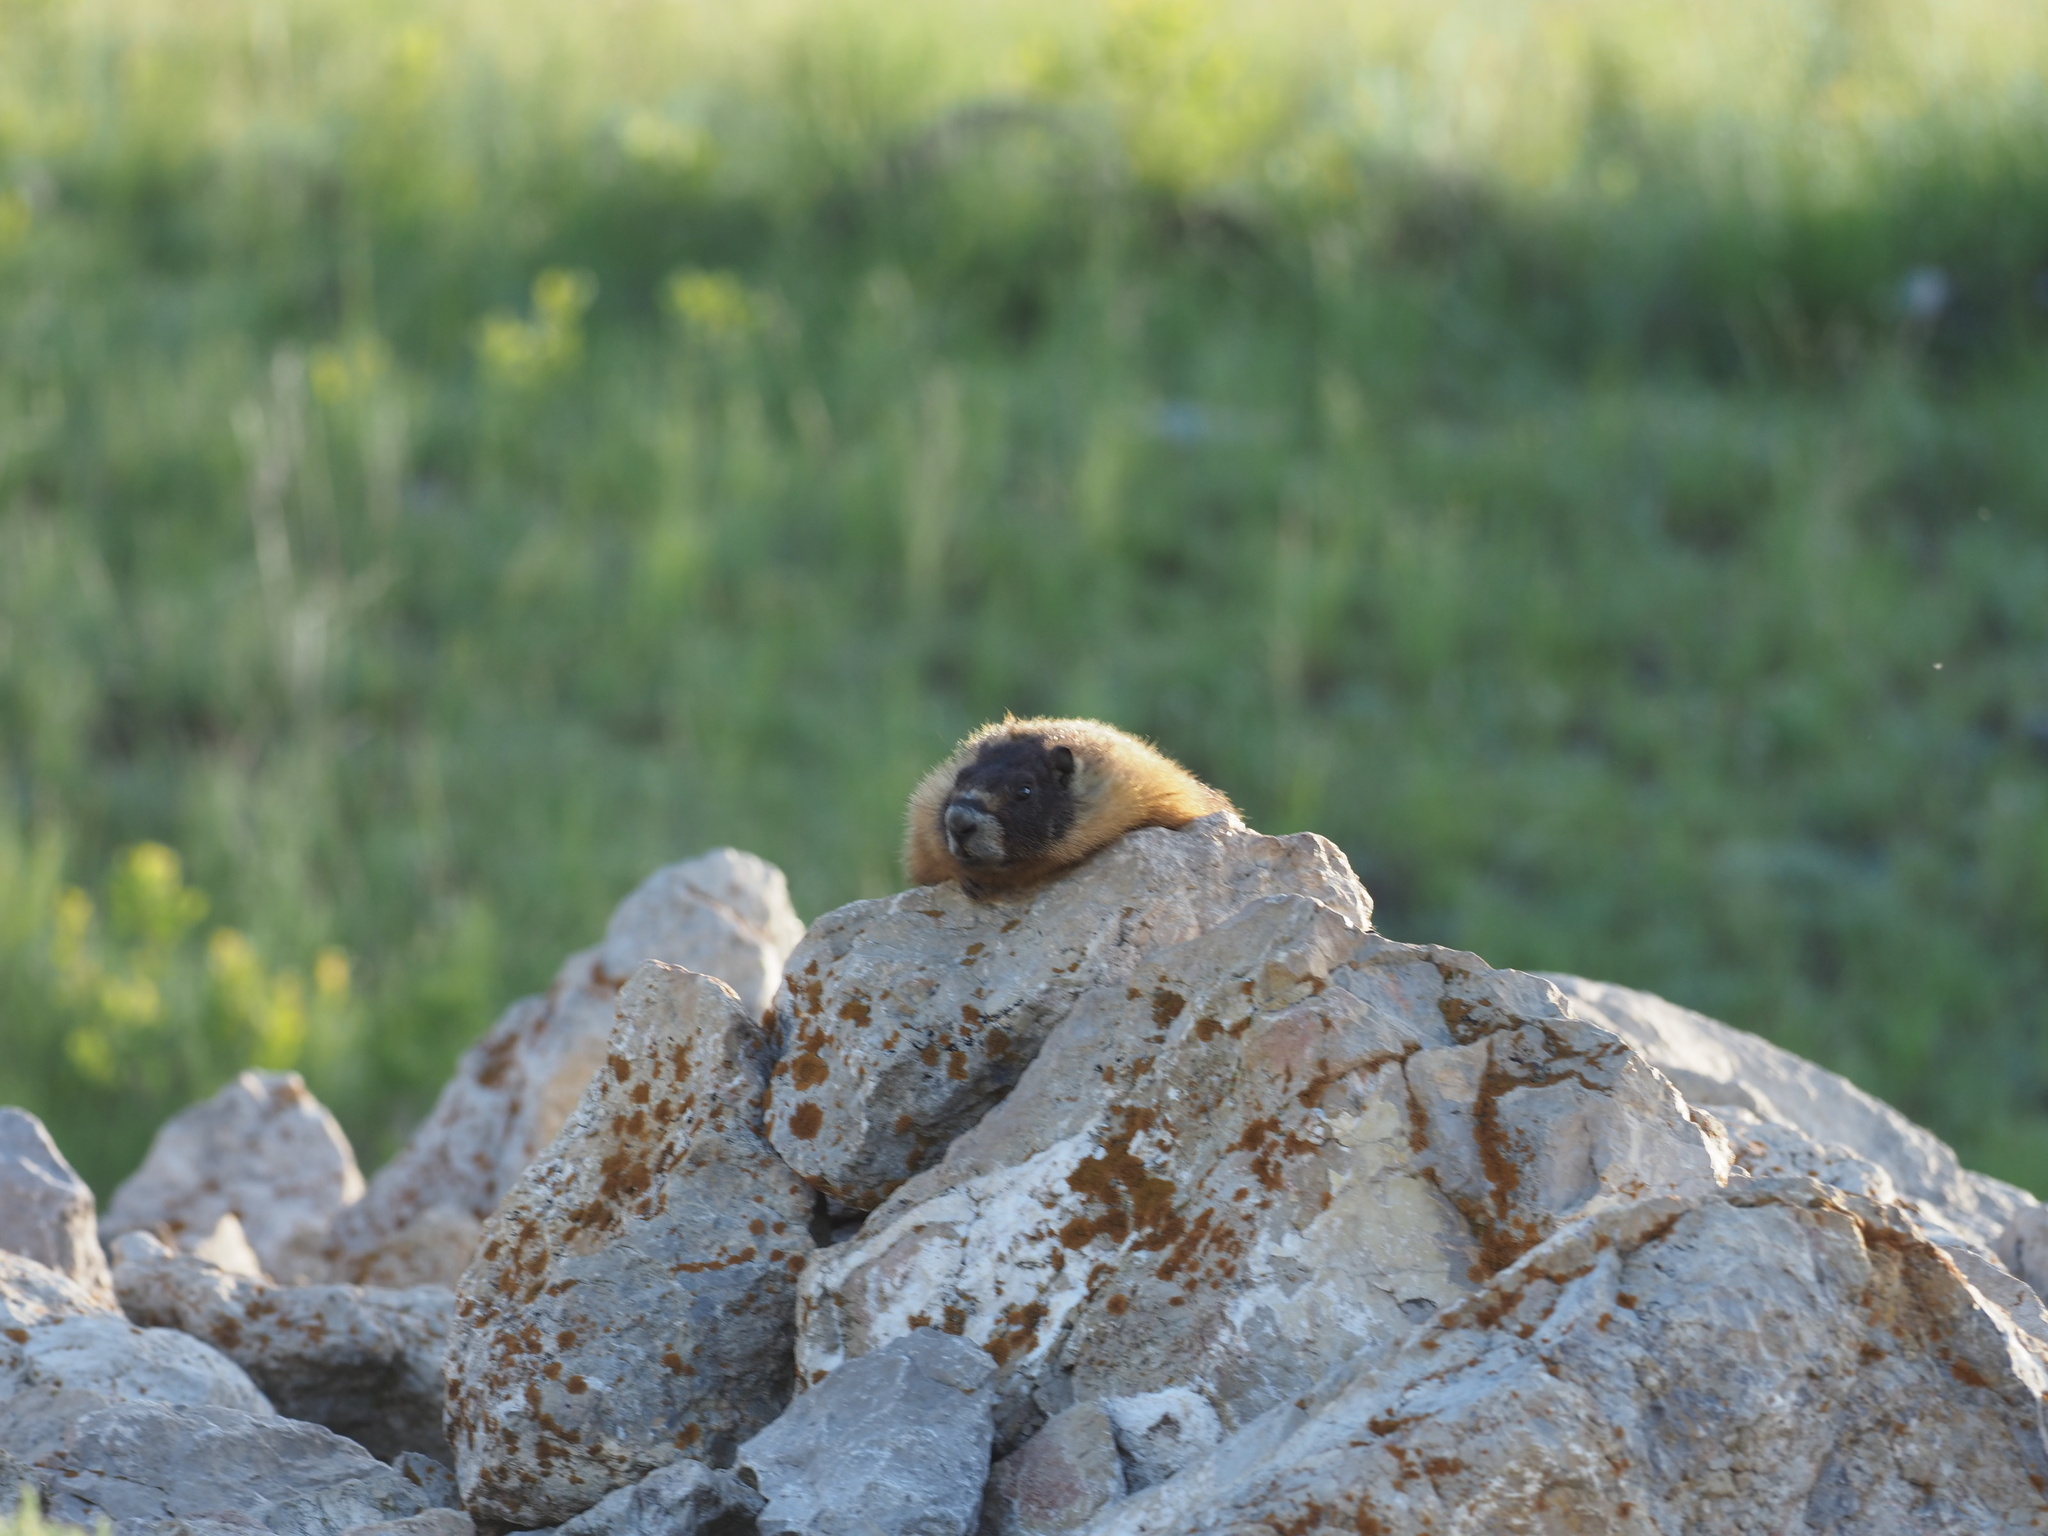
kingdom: Animalia
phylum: Chordata
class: Mammalia
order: Rodentia
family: Sciuridae
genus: Marmota
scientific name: Marmota flaviventris
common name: Yellow-bellied marmot
